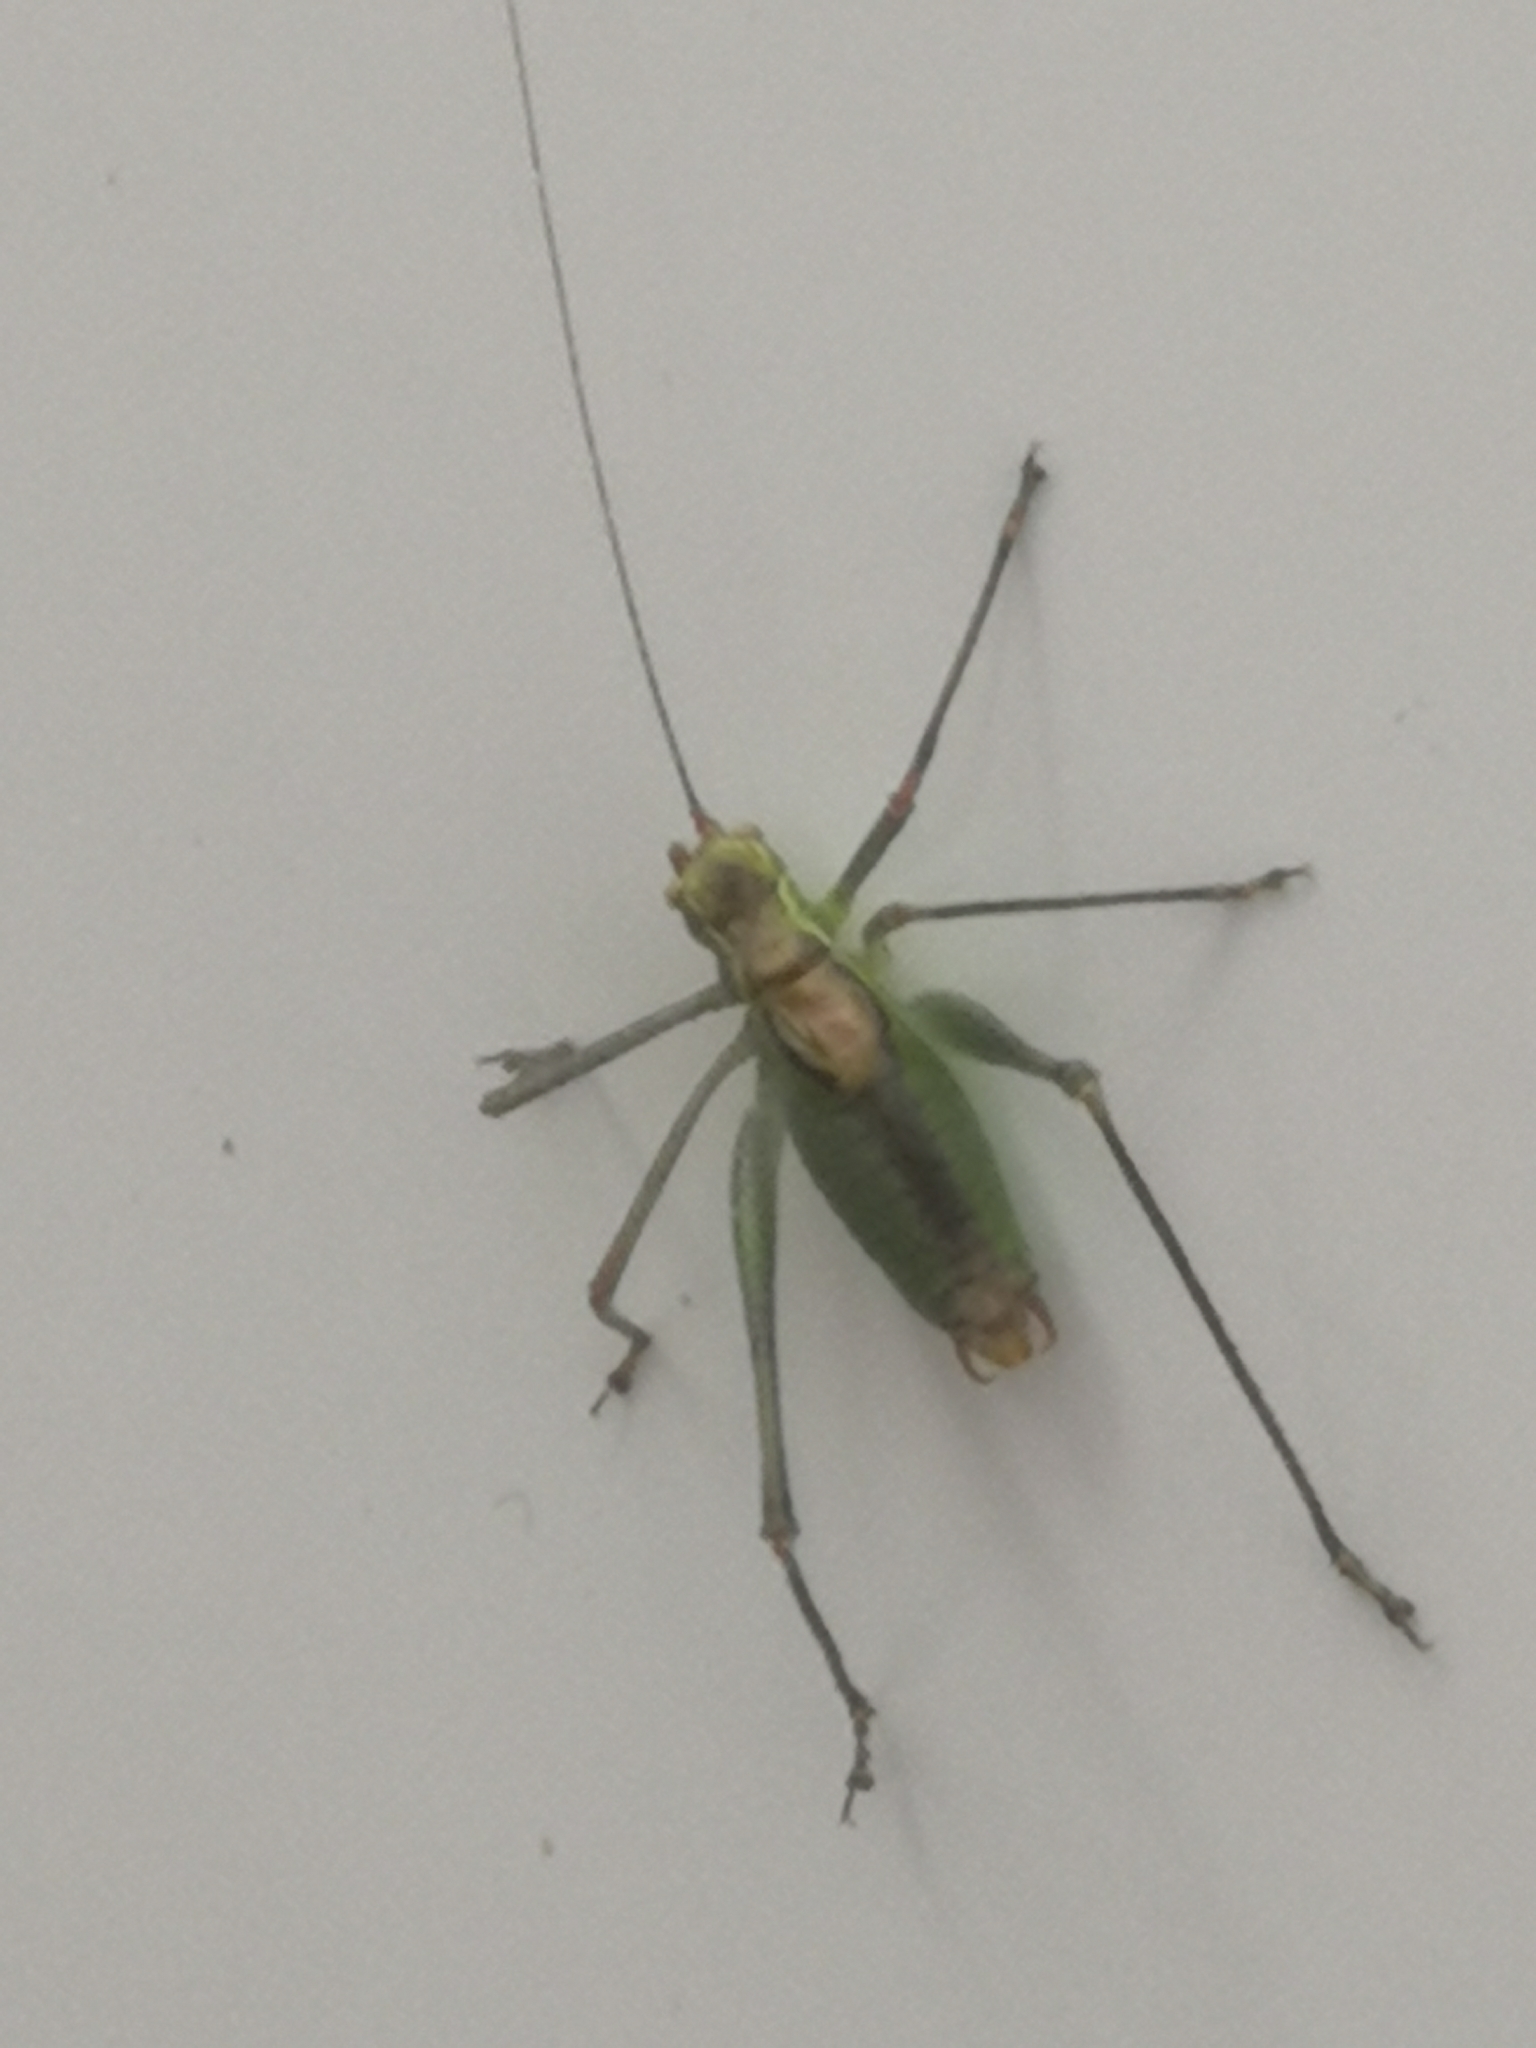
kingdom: Animalia
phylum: Arthropoda
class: Insecta
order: Orthoptera
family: Tettigoniidae
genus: Leptophyes
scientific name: Leptophyes punctatissima
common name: Speckled bush-cricket
